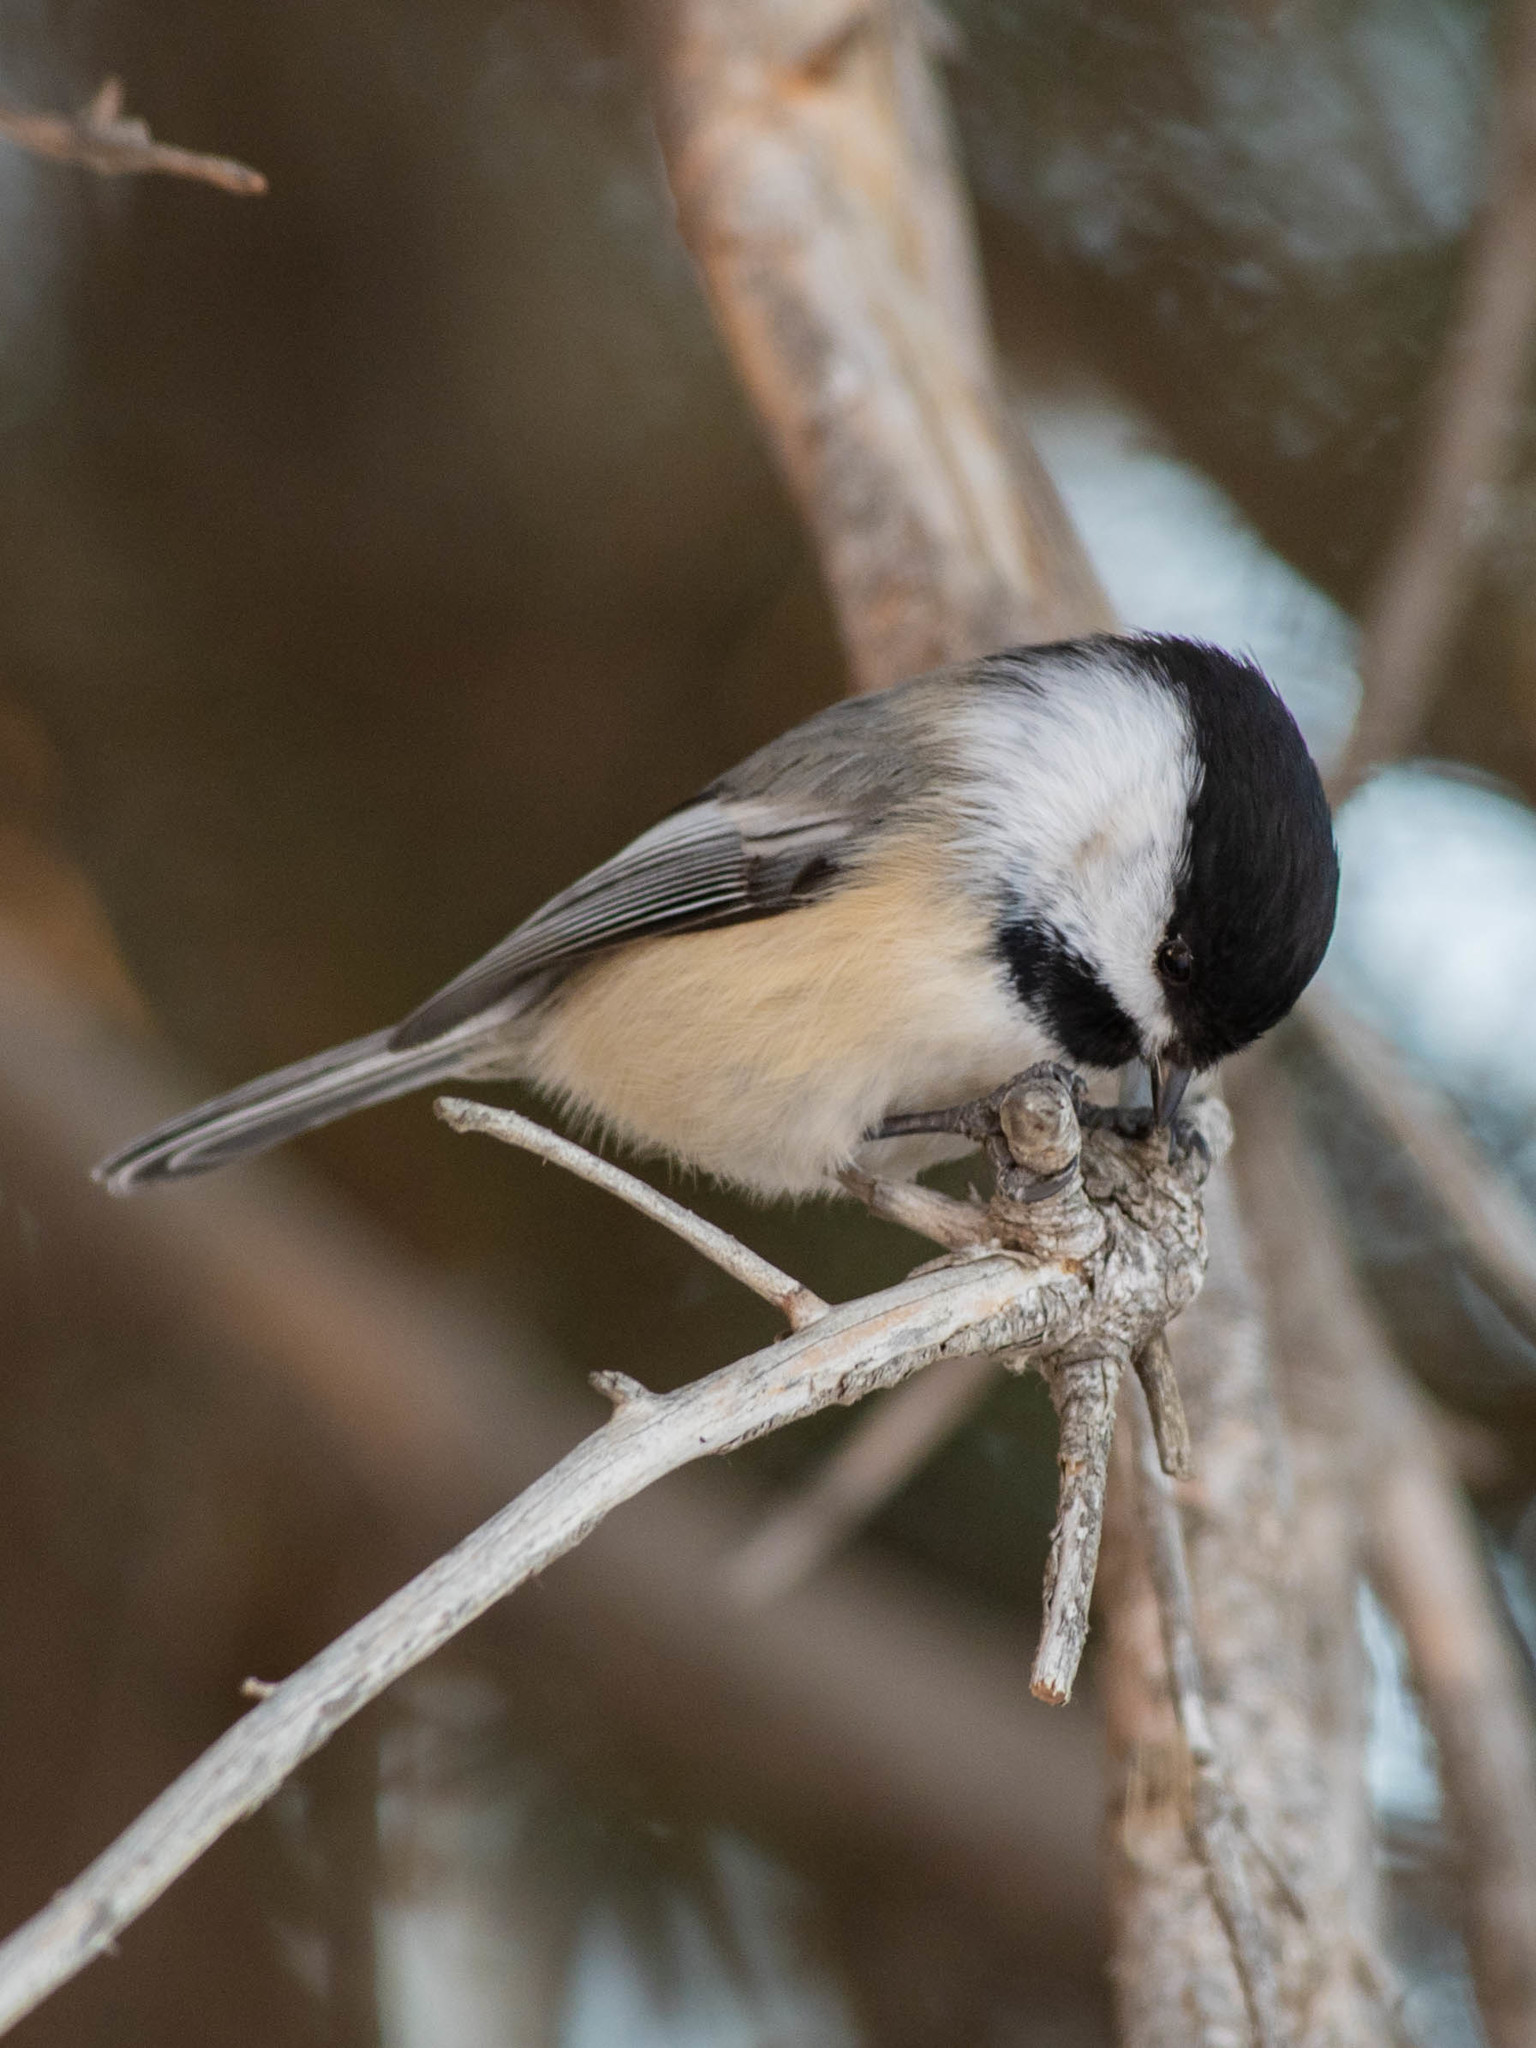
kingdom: Animalia
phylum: Chordata
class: Aves
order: Passeriformes
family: Paridae
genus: Poecile
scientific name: Poecile atricapillus
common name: Black-capped chickadee
